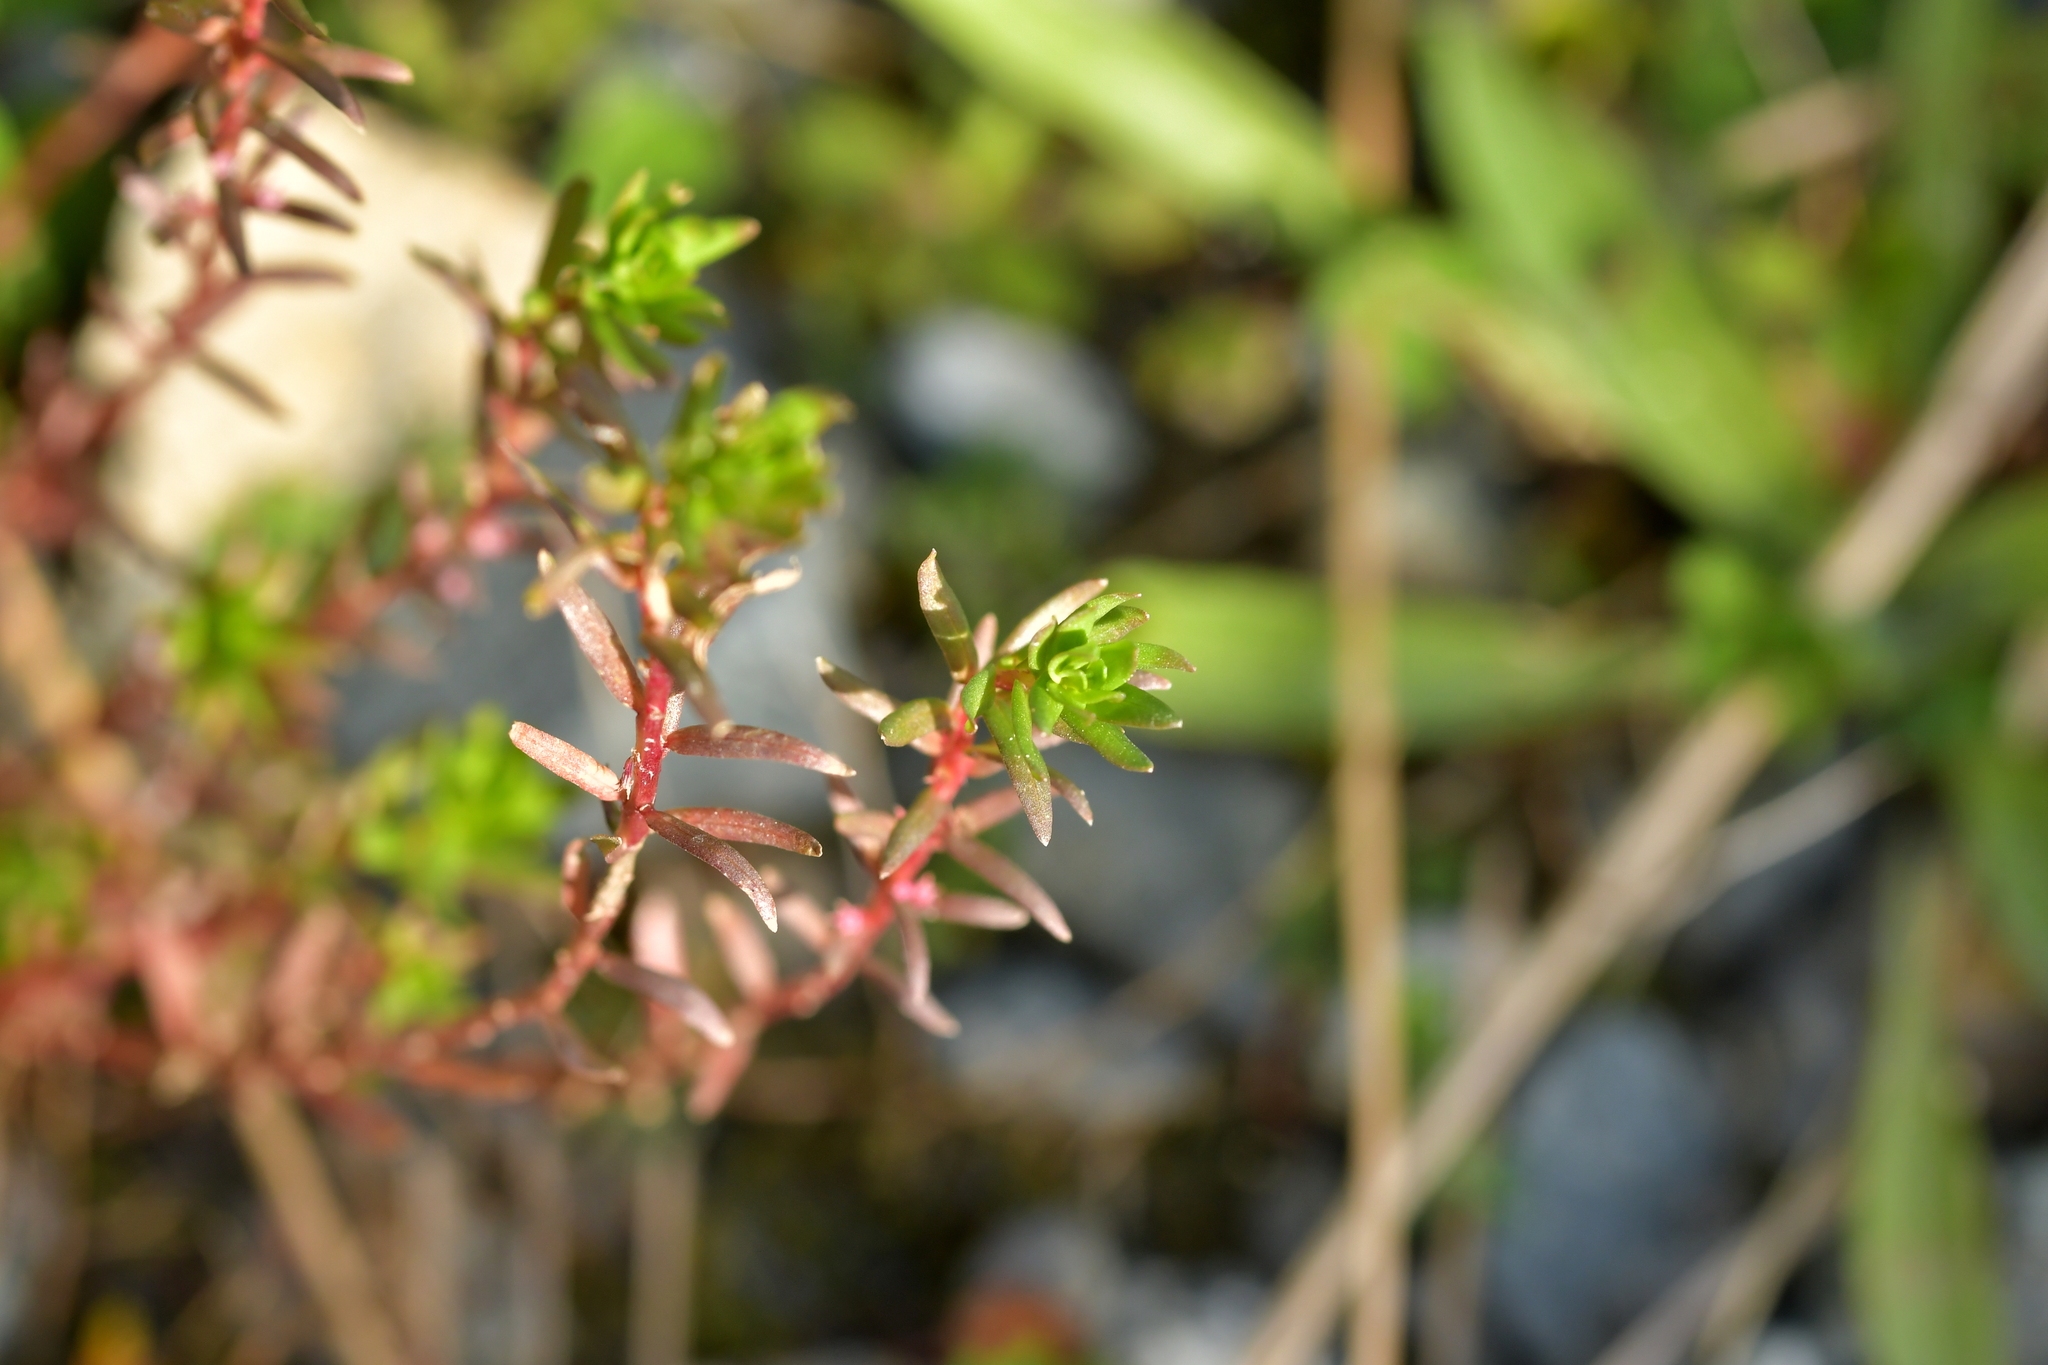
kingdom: Plantae
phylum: Tracheophyta
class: Magnoliopsida
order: Myrtales
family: Lythraceae
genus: Lythrum
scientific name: Lythrum hyssopifolia
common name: Grass-poly
